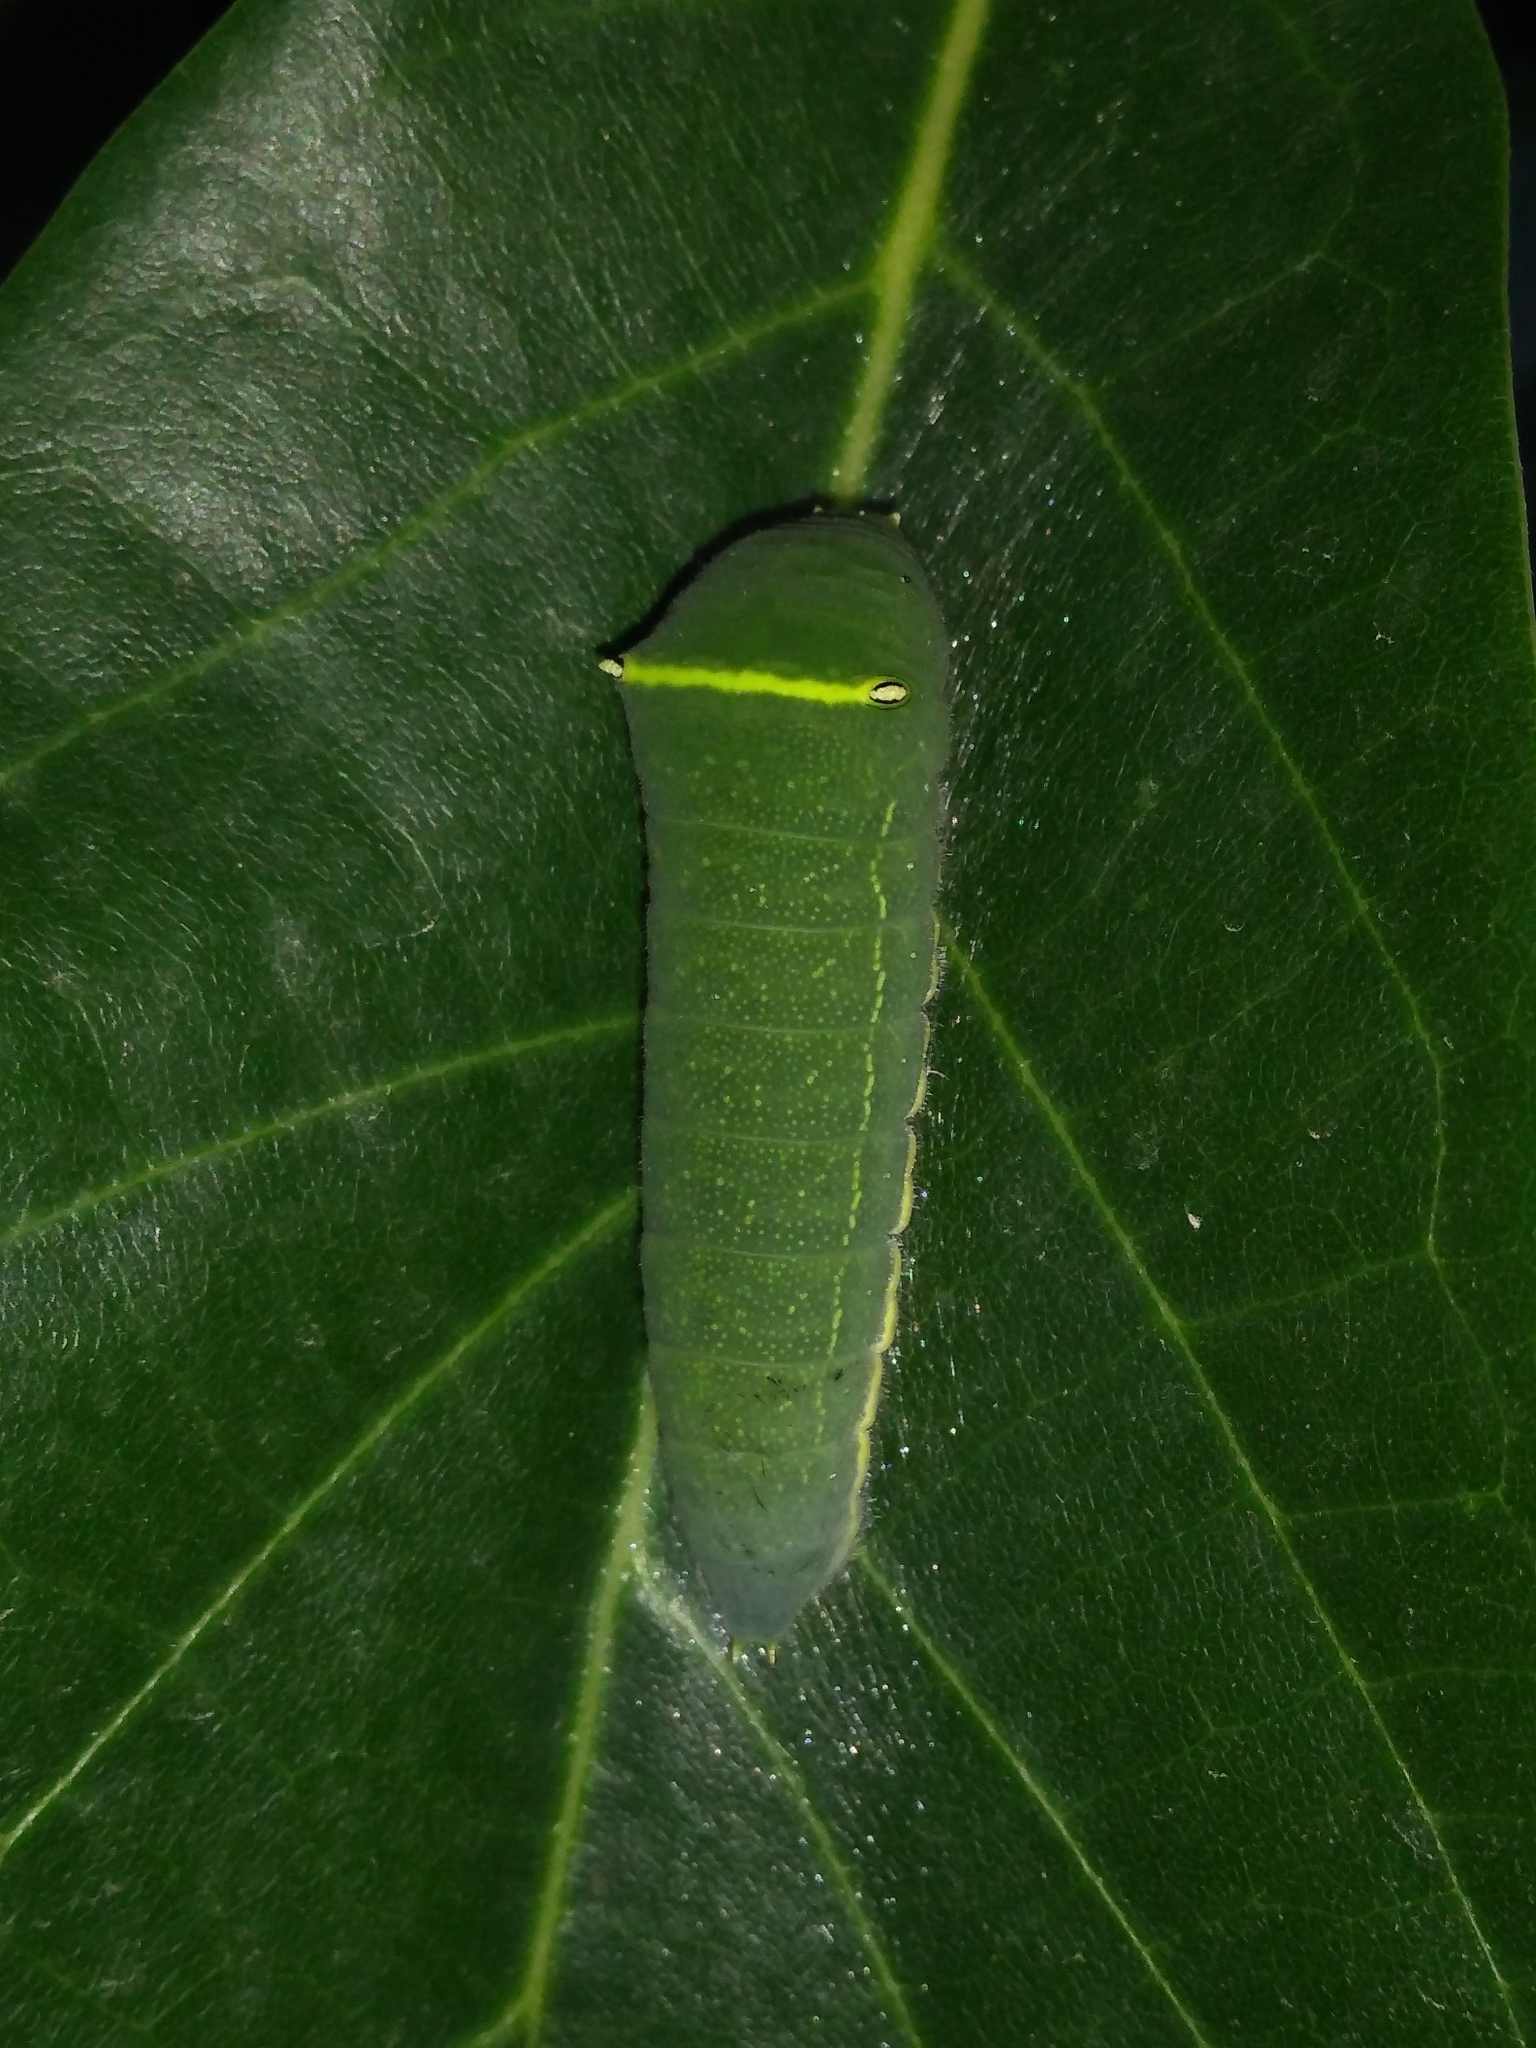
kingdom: Animalia
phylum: Arthropoda
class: Insecta
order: Lepidoptera
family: Papilionidae
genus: Graphium
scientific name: Graphium
